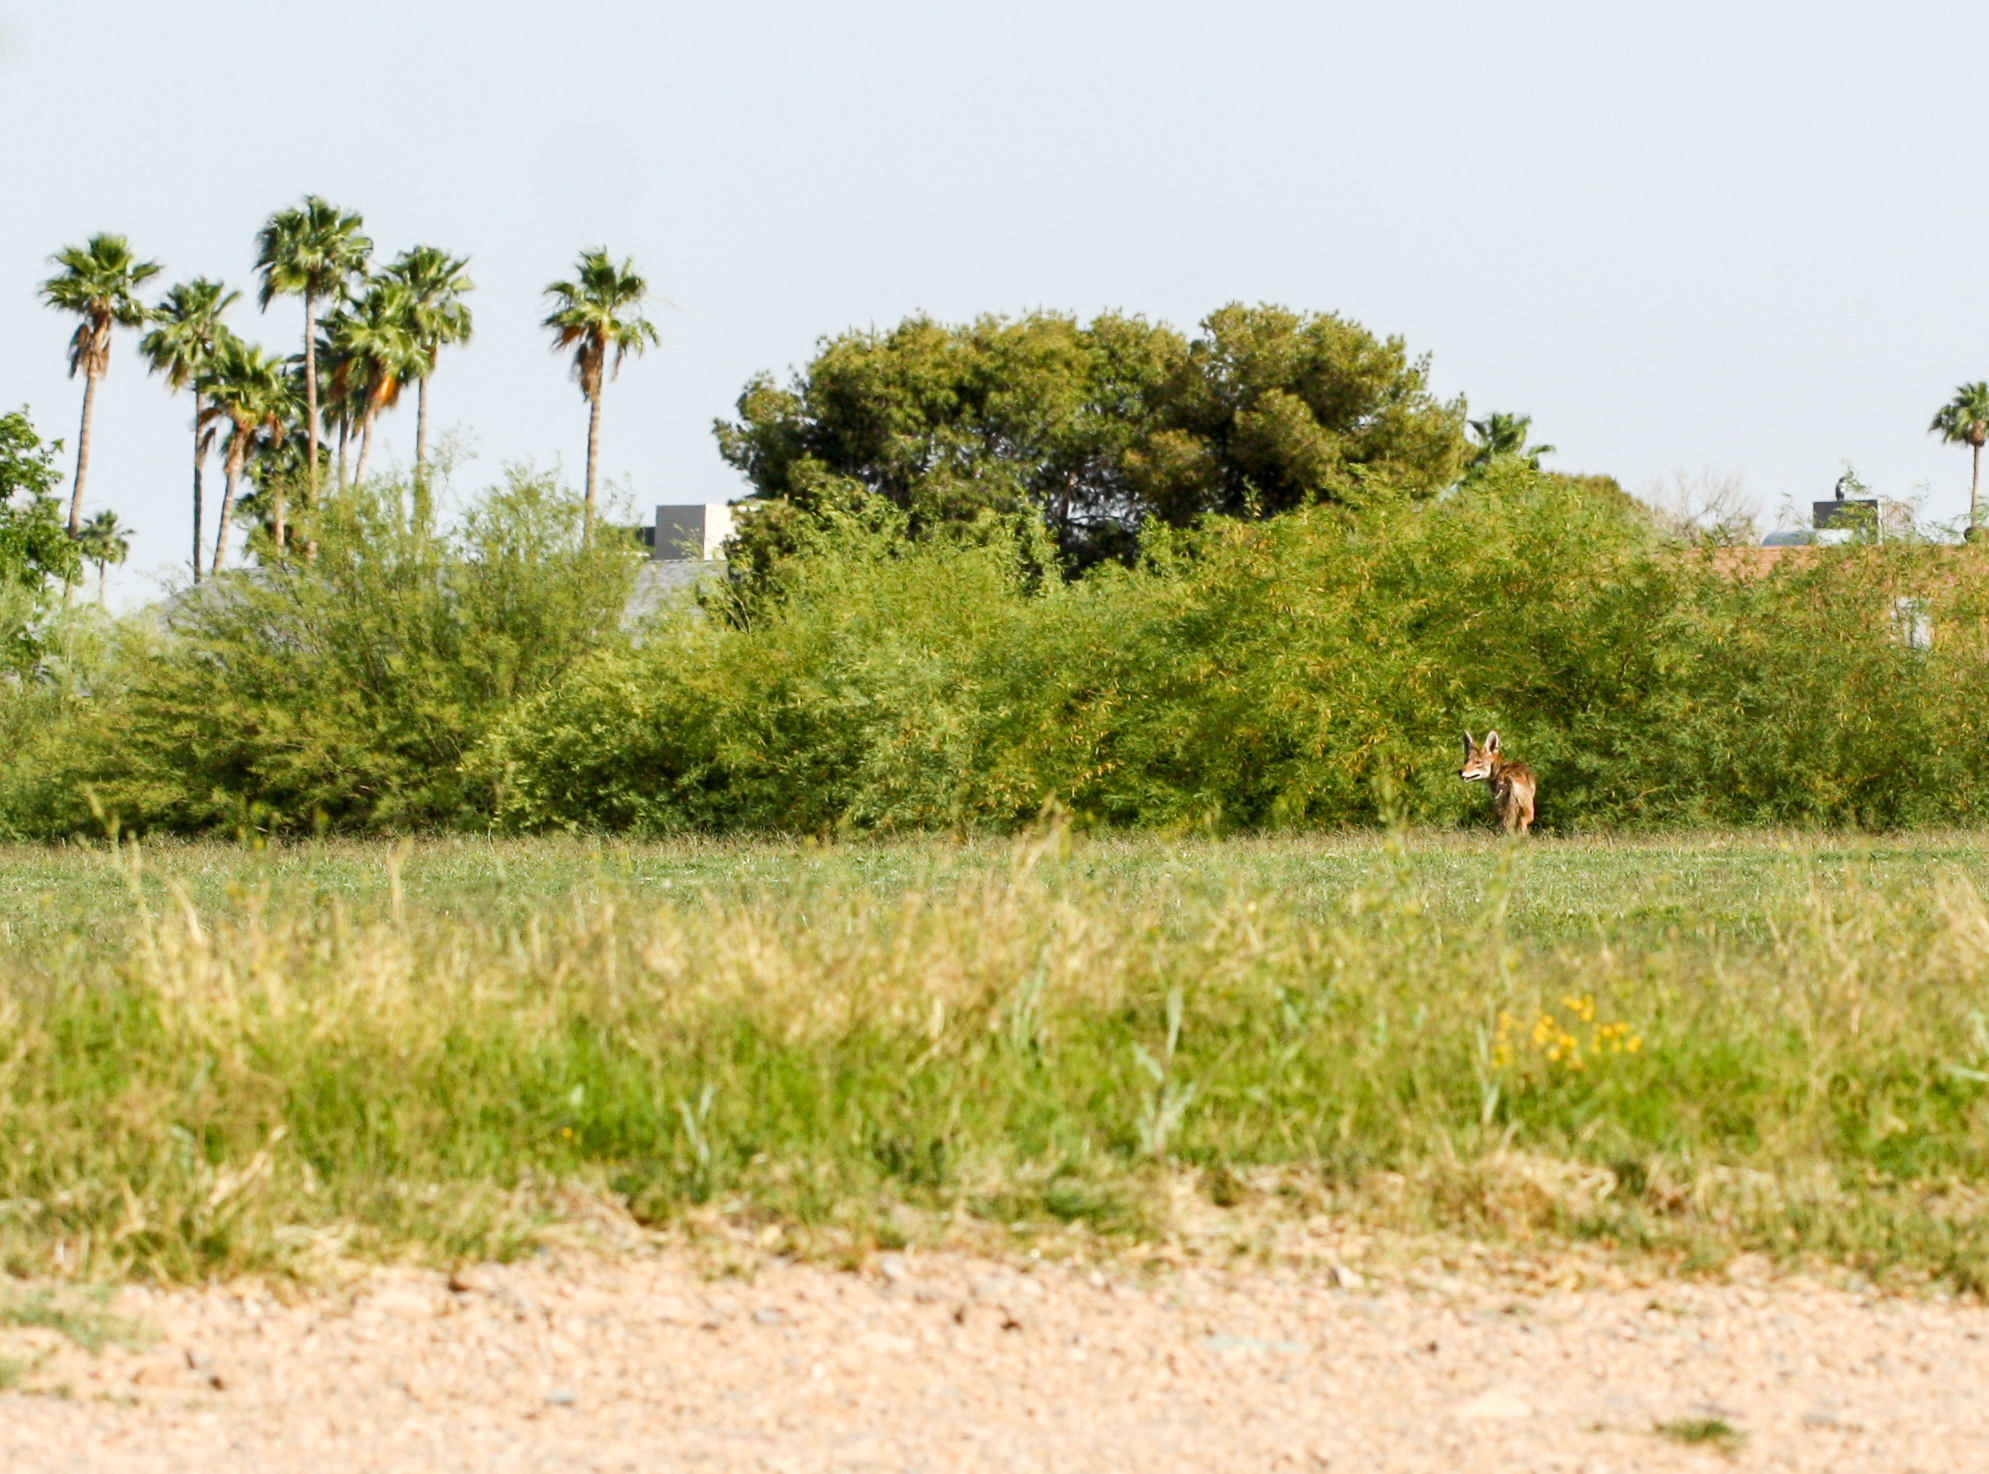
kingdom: Animalia
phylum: Chordata
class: Mammalia
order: Carnivora
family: Canidae
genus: Canis
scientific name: Canis latrans
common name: Coyote
